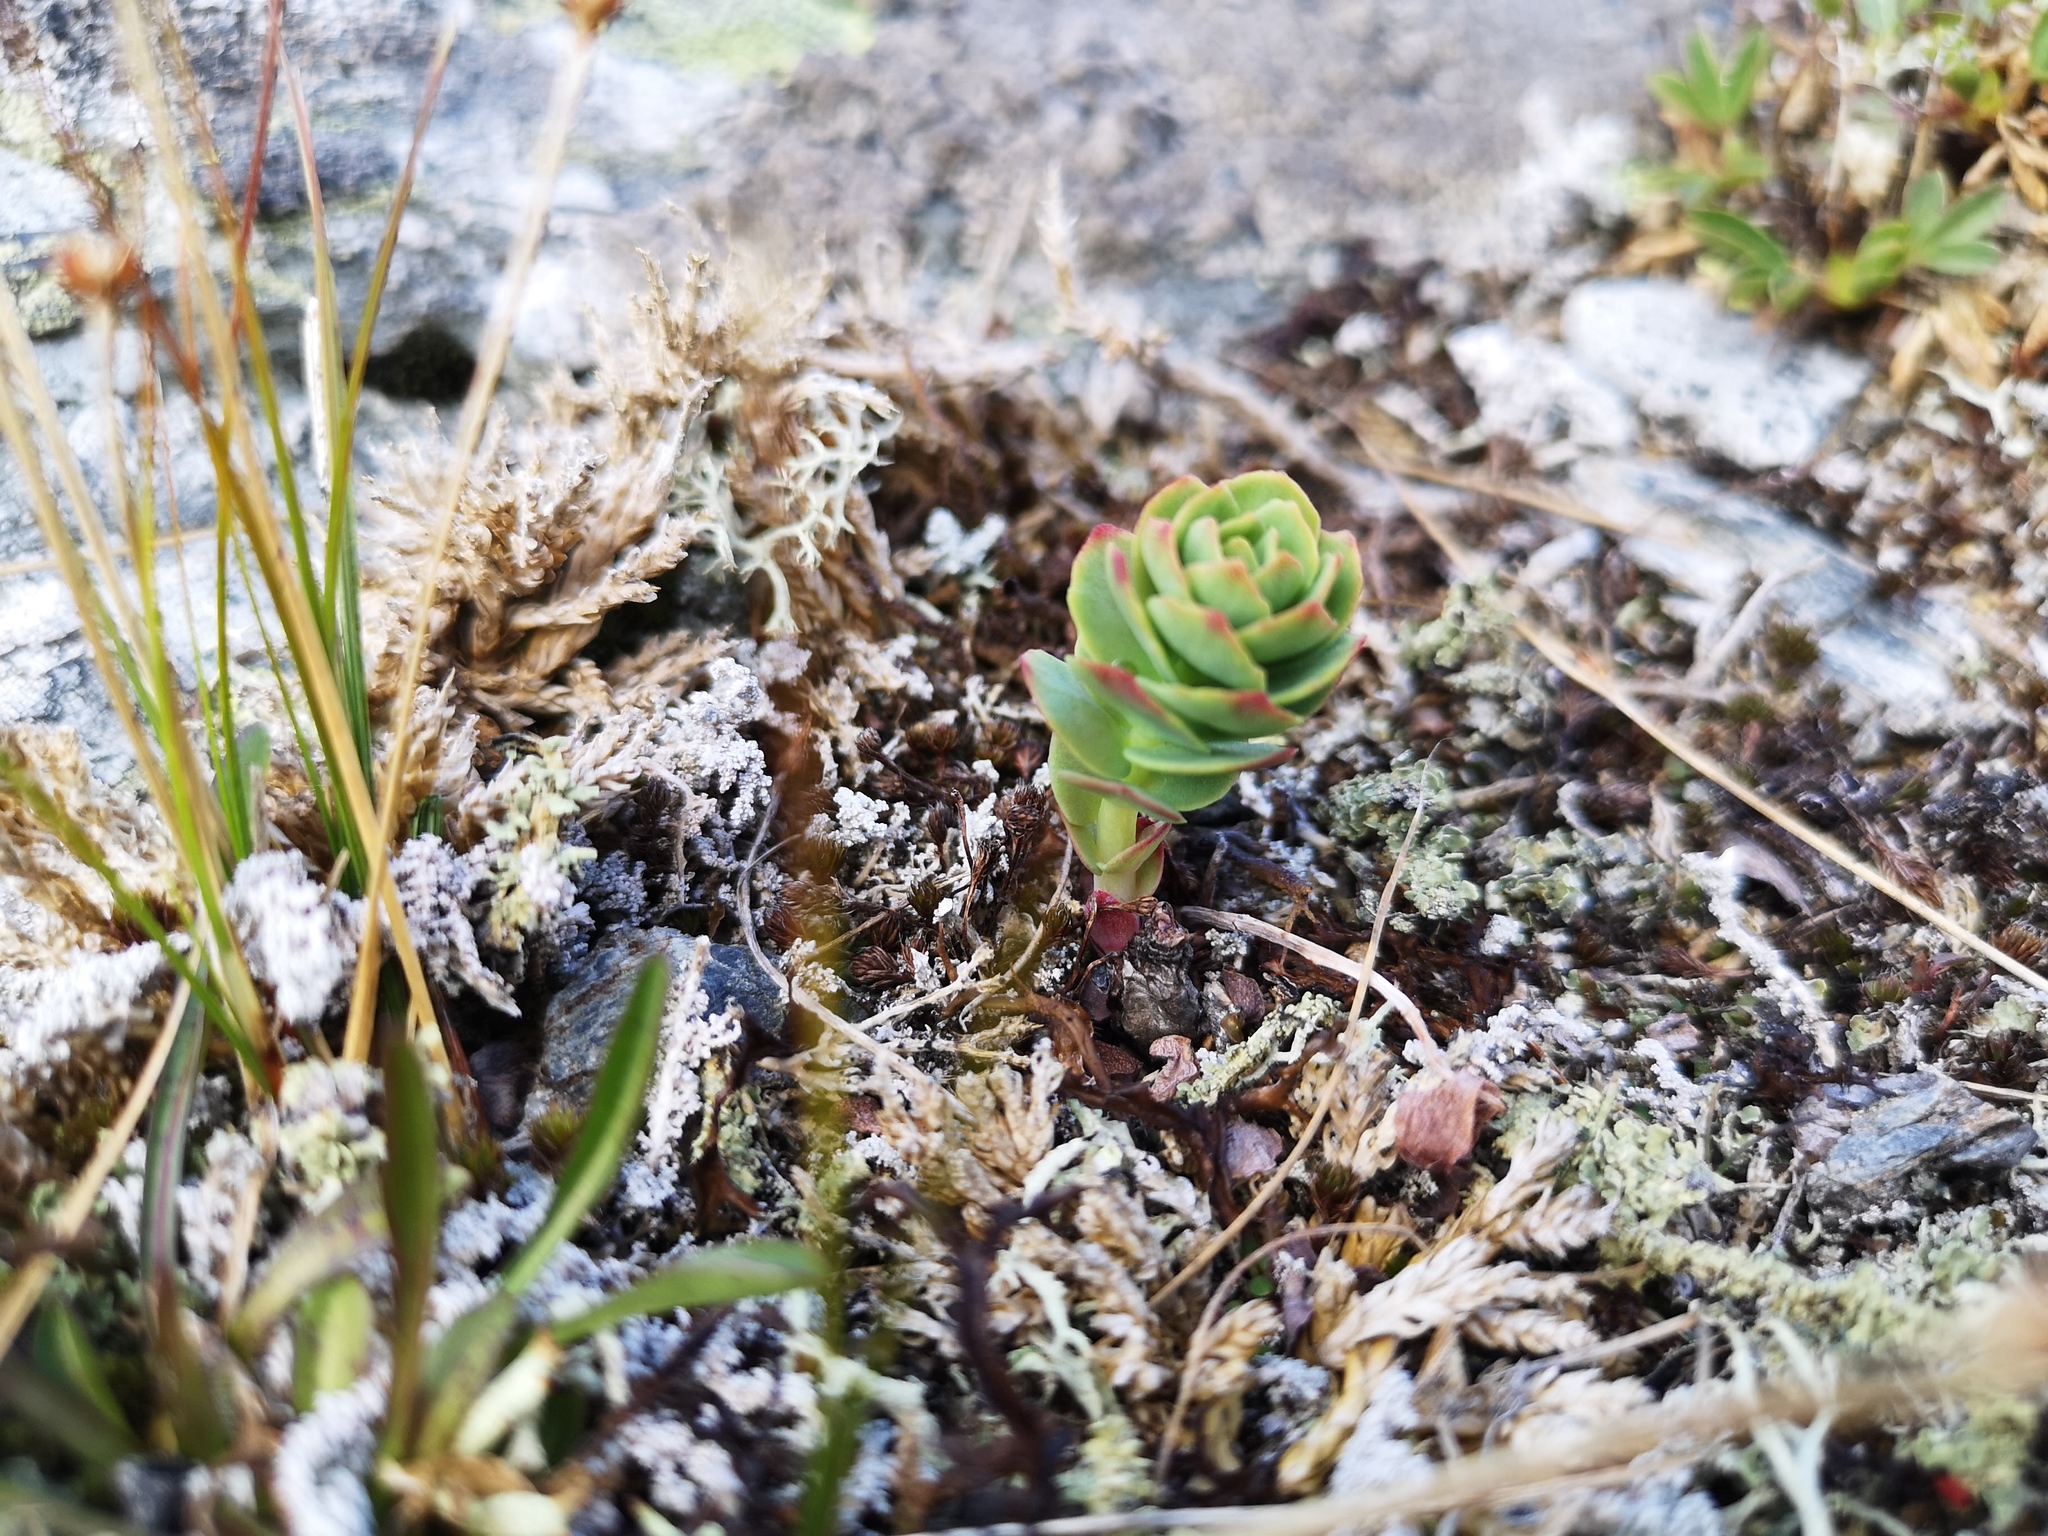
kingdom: Plantae
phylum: Tracheophyta
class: Magnoliopsida
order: Saxifragales
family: Crassulaceae
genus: Rhodiola
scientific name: Rhodiola rosea
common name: Roseroot
